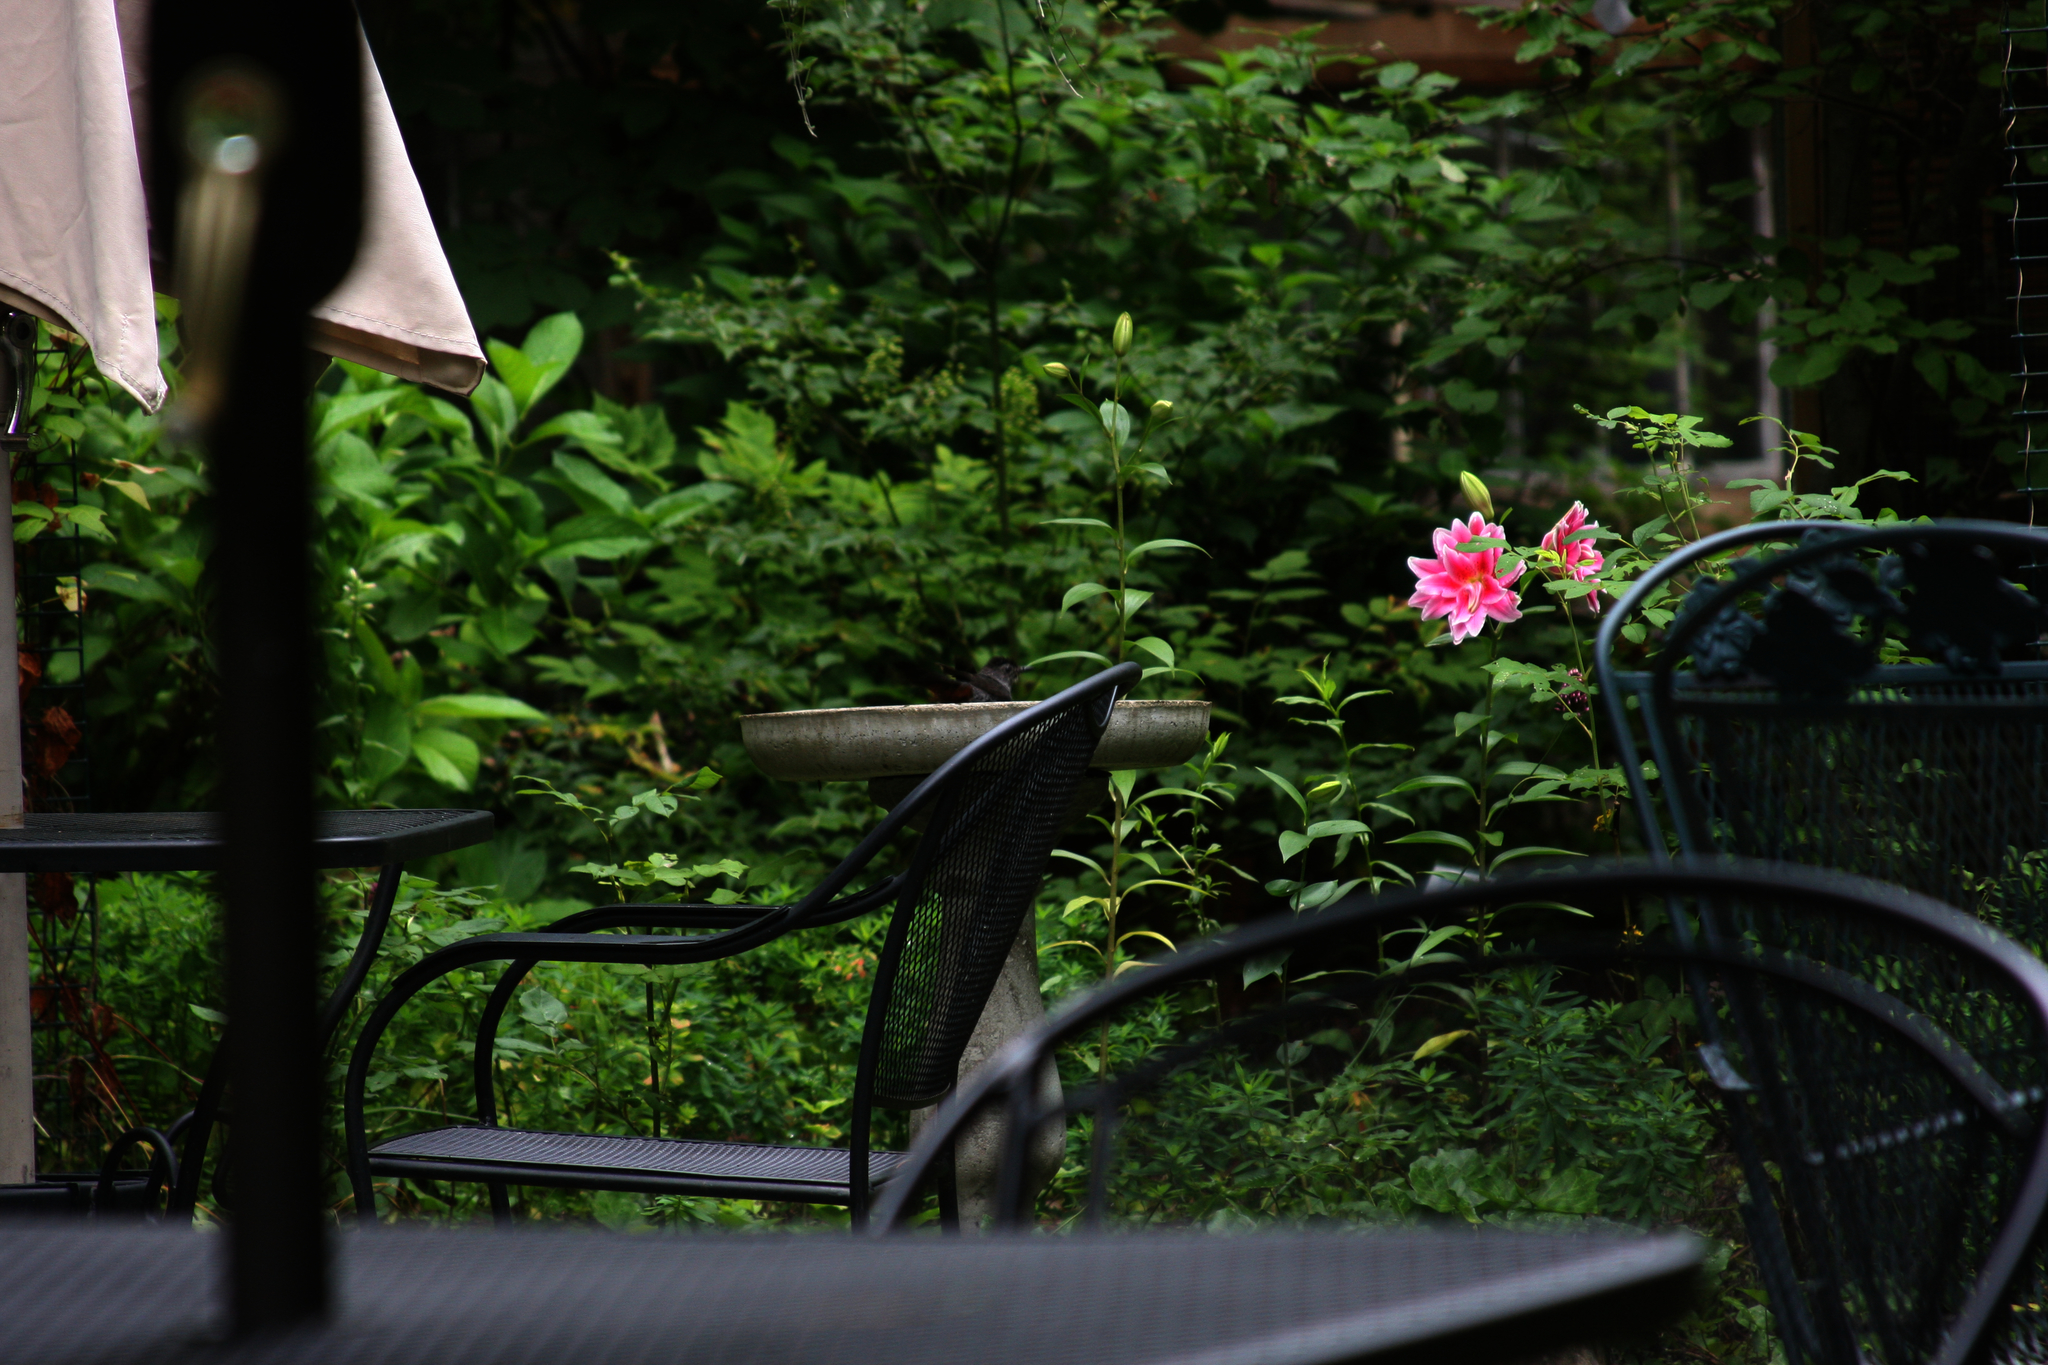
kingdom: Animalia
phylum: Chordata
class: Aves
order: Passeriformes
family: Mimidae
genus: Dumetella
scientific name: Dumetella carolinensis
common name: Gray catbird
